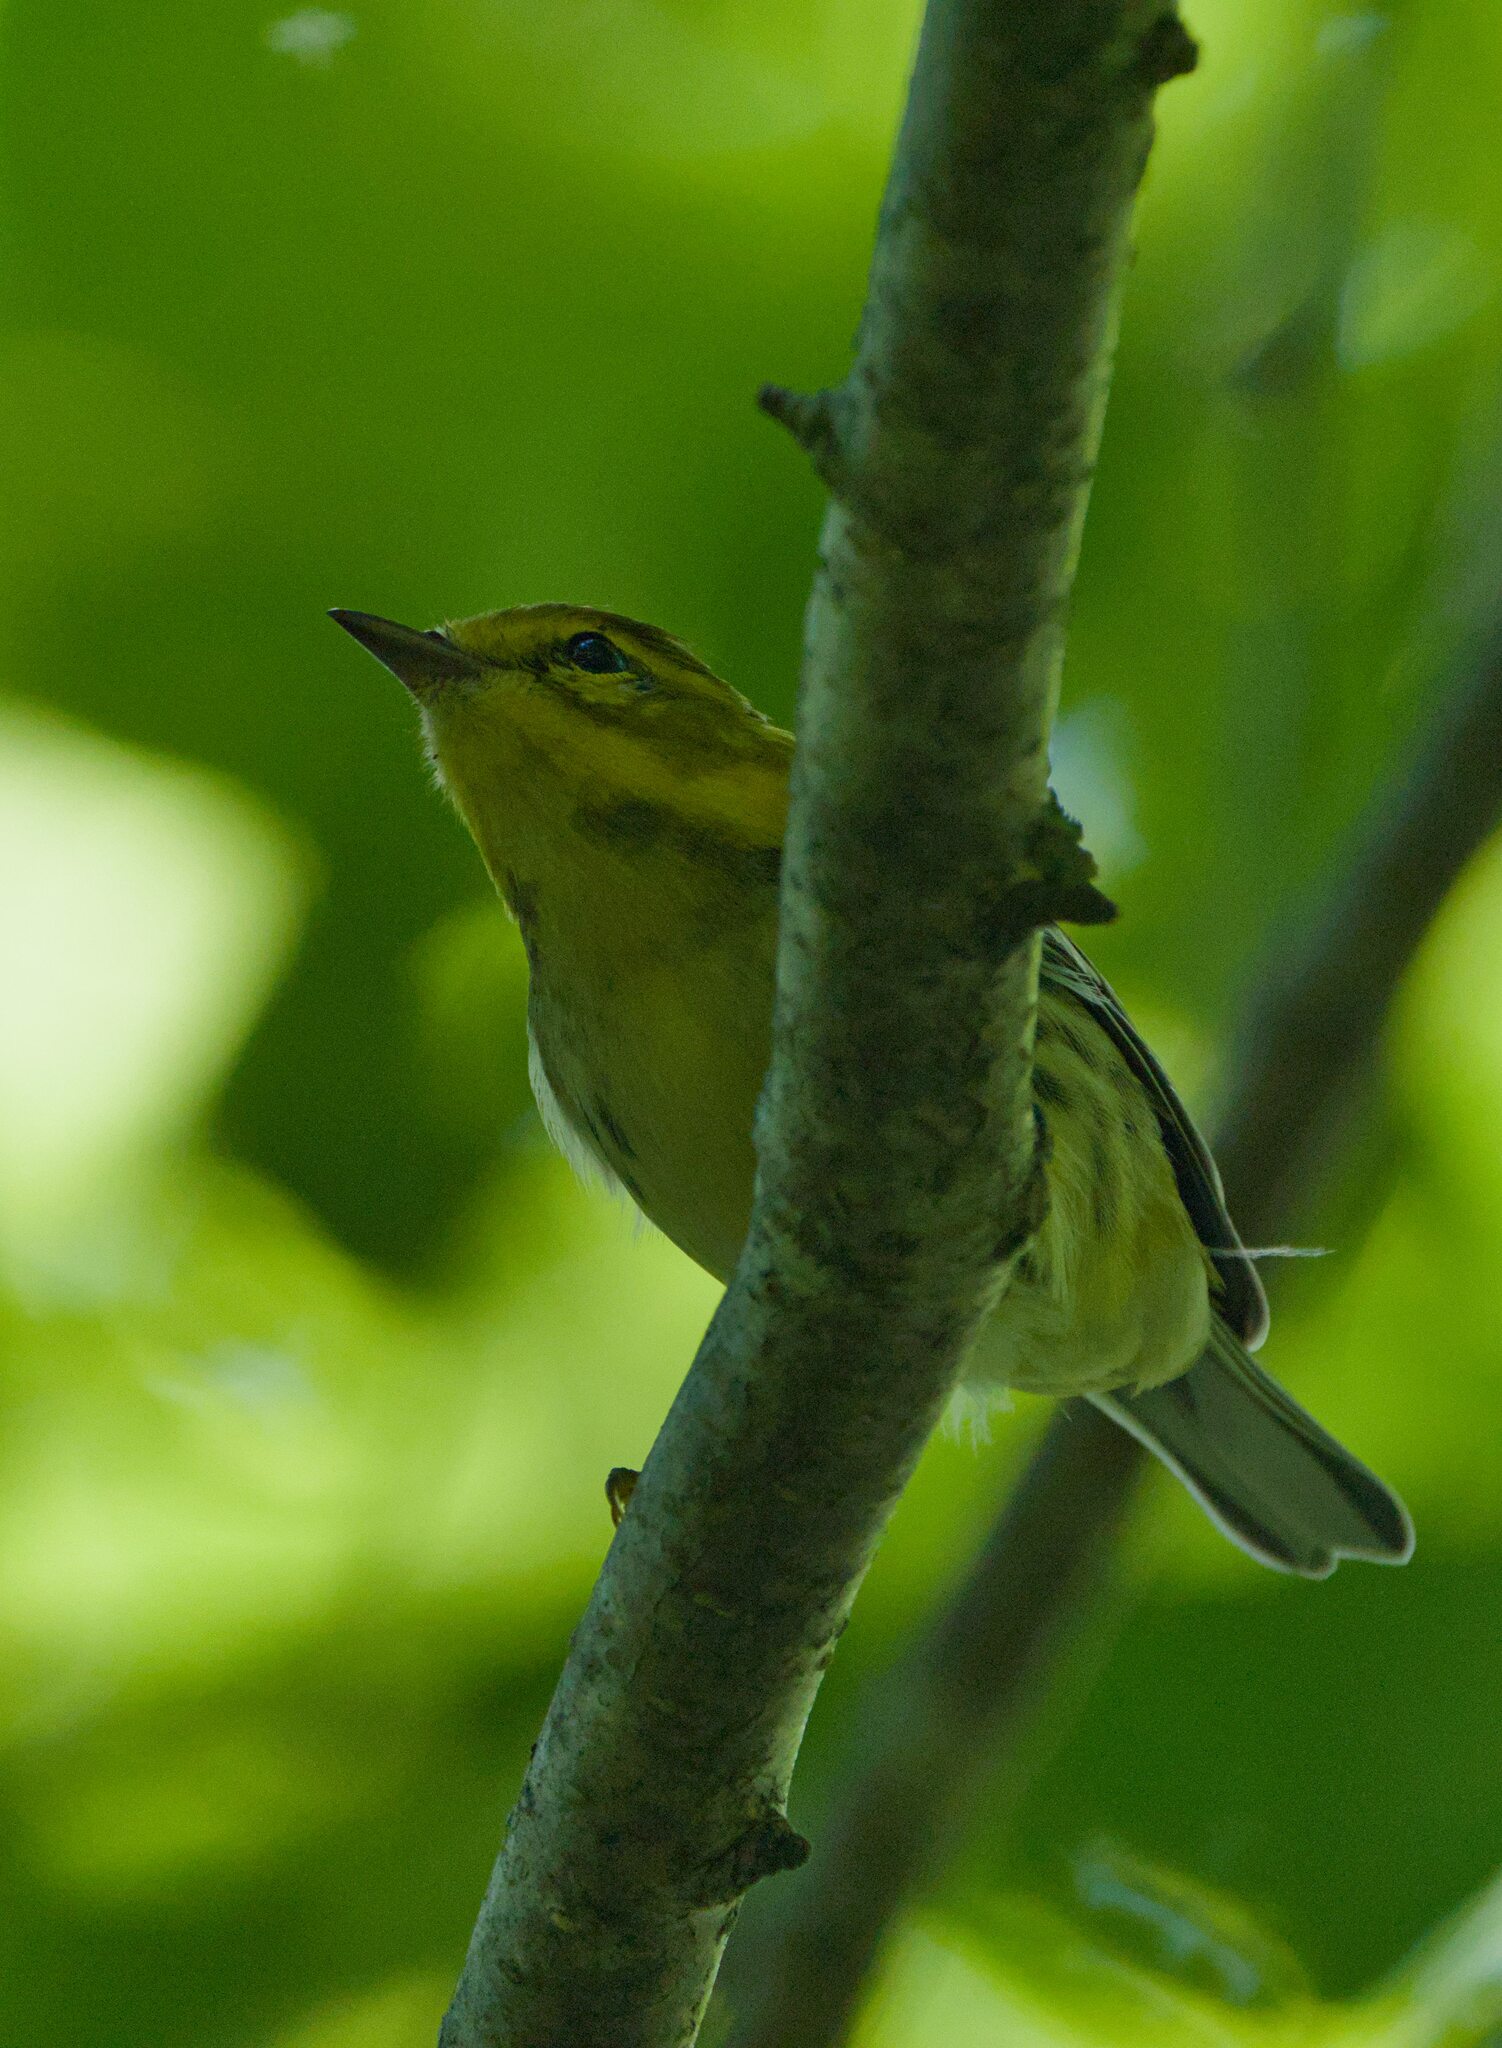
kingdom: Animalia
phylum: Chordata
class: Aves
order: Passeriformes
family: Parulidae
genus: Setophaga
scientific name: Setophaga virens
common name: Black-throated green warbler
